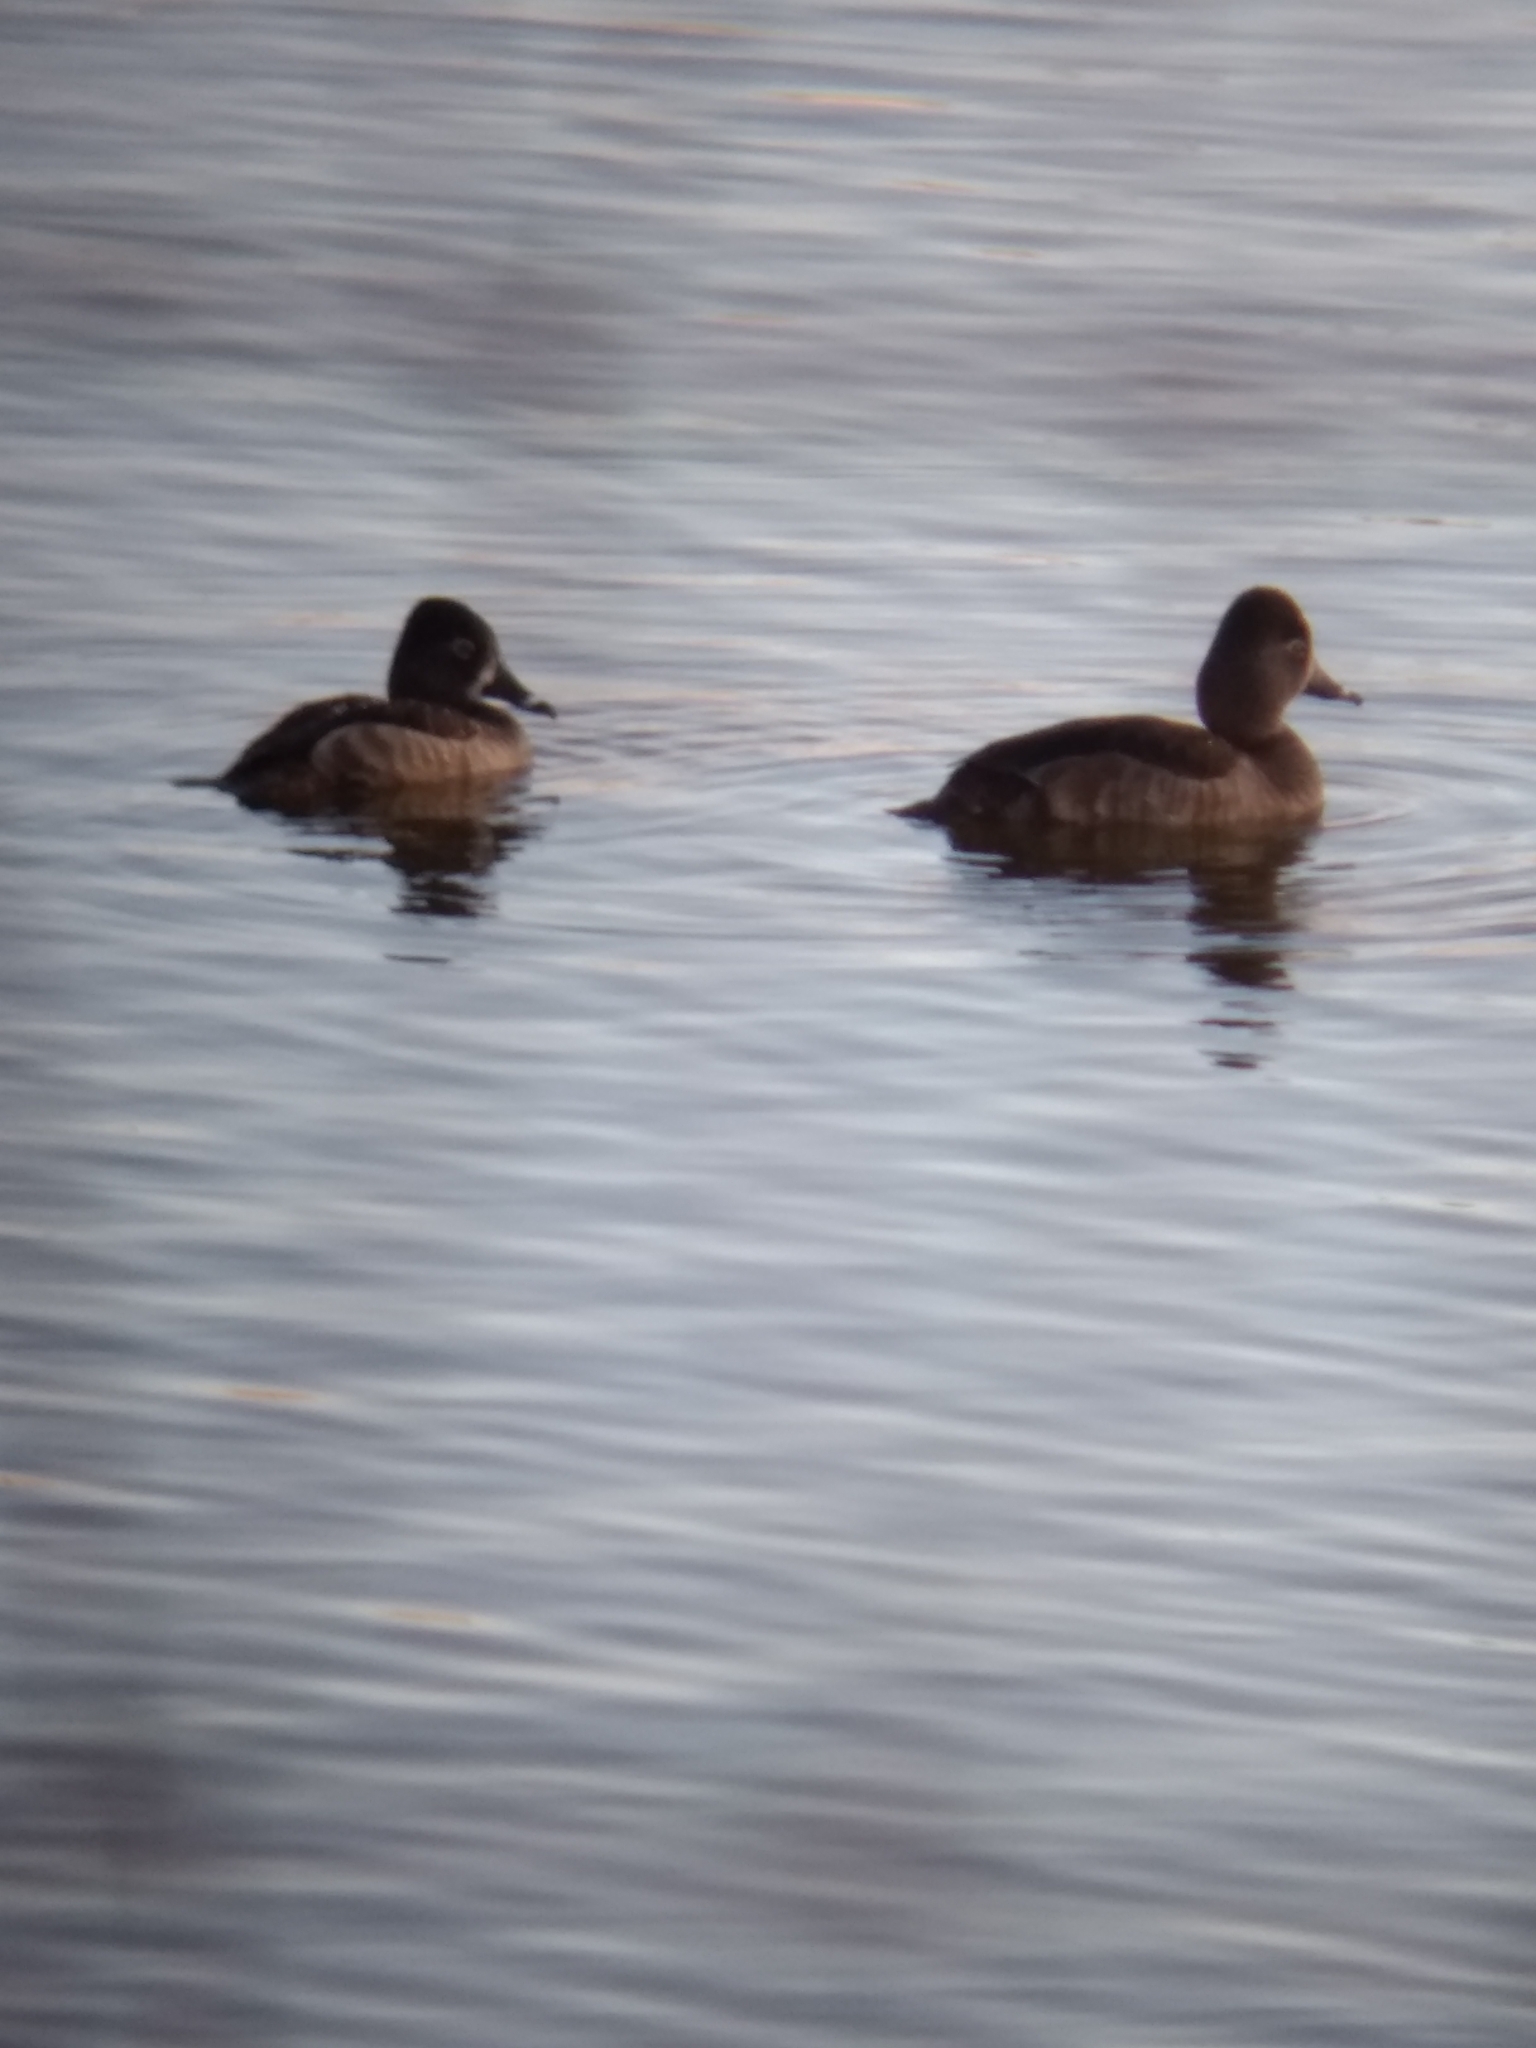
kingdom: Animalia
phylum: Chordata
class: Aves
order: Anseriformes
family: Anatidae
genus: Aythya
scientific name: Aythya collaris
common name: Ring-necked duck
